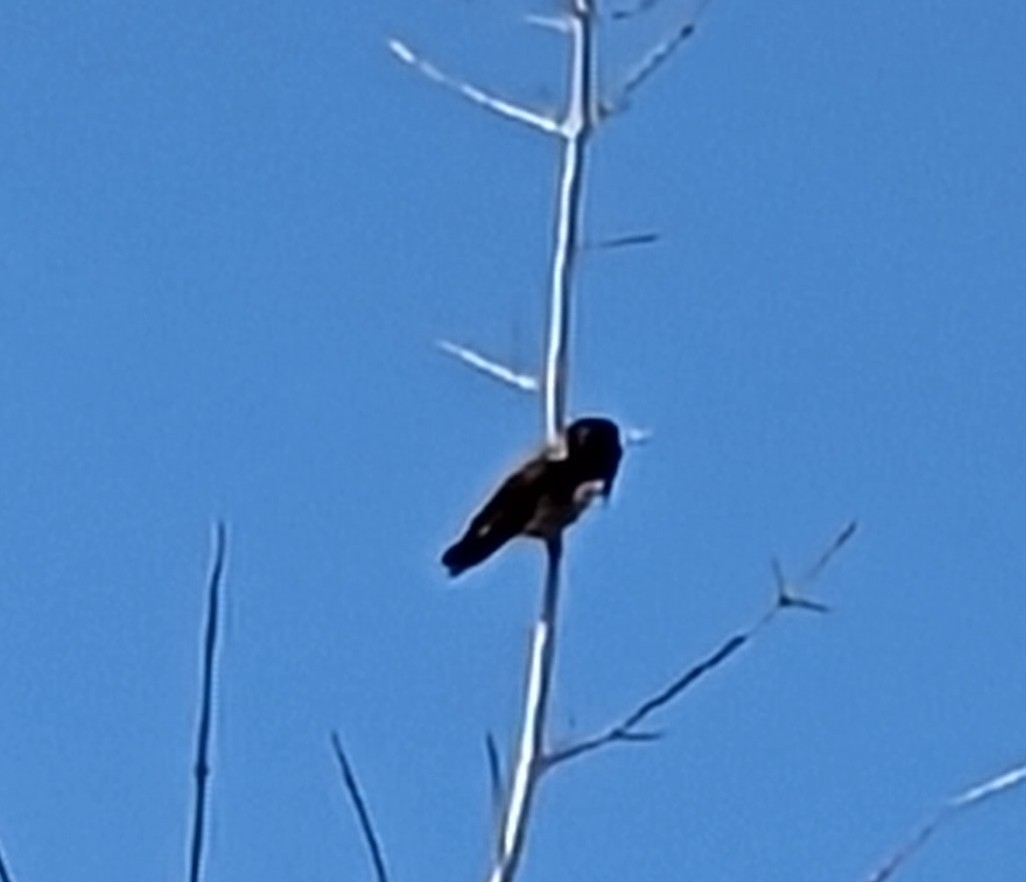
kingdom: Animalia
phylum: Chordata
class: Aves
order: Apodiformes
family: Trochilidae
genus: Calypte
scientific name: Calypte costae
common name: Costa's hummingbird
